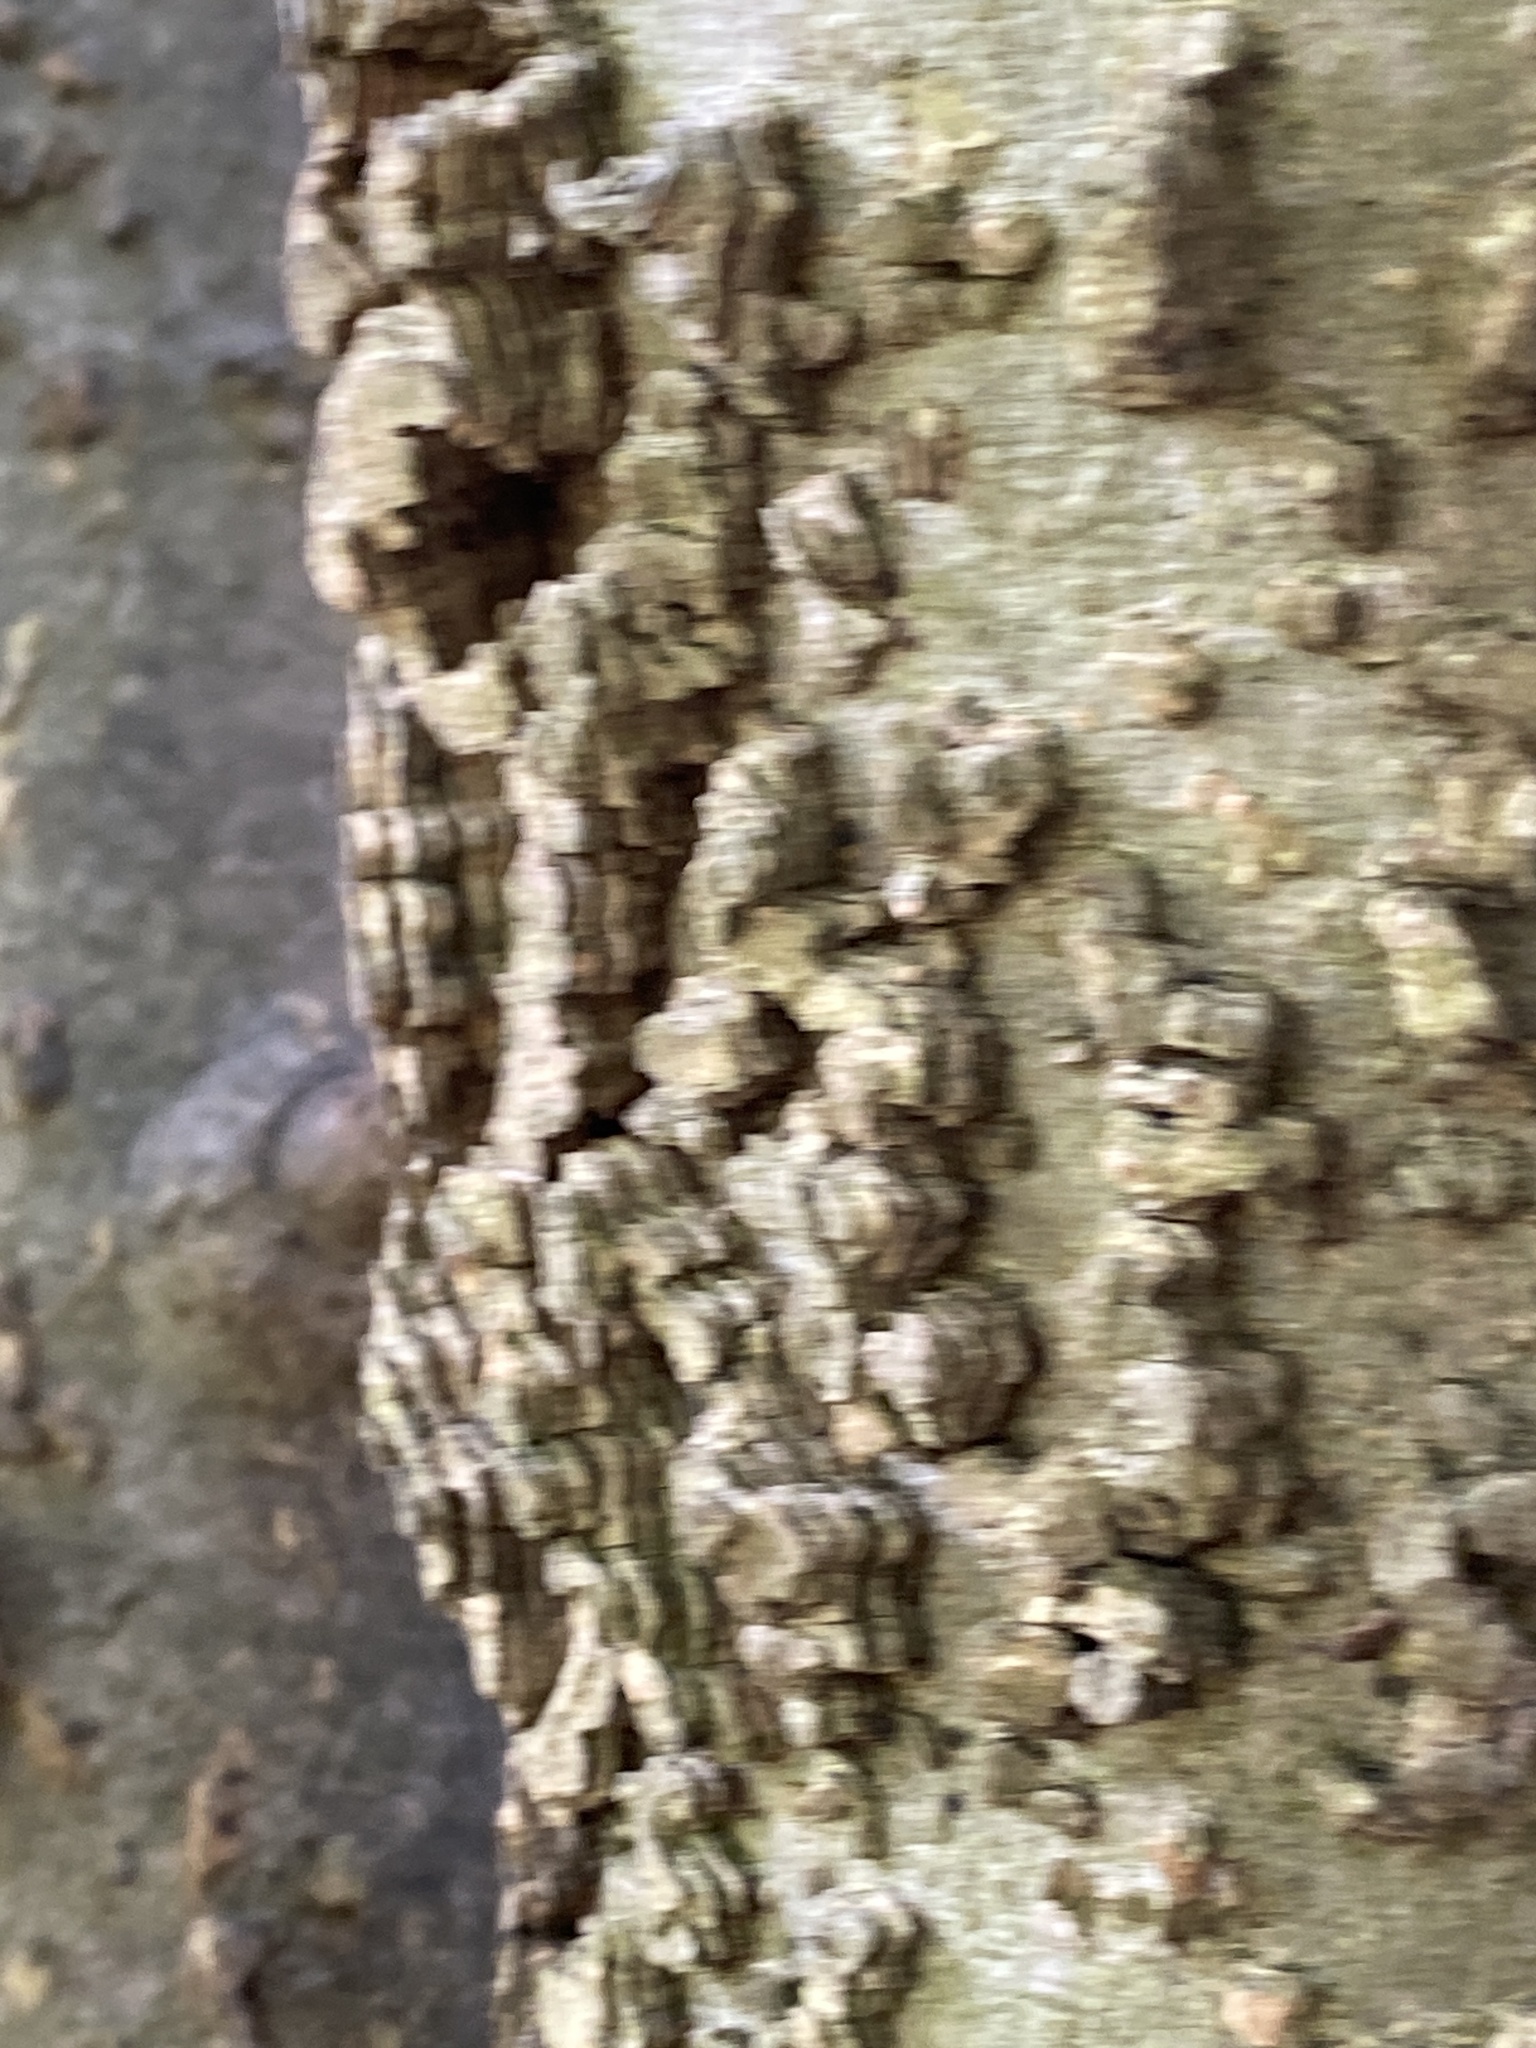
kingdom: Plantae
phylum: Tracheophyta
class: Magnoliopsida
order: Rosales
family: Cannabaceae
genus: Celtis
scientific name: Celtis occidentalis
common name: Common hackberry
